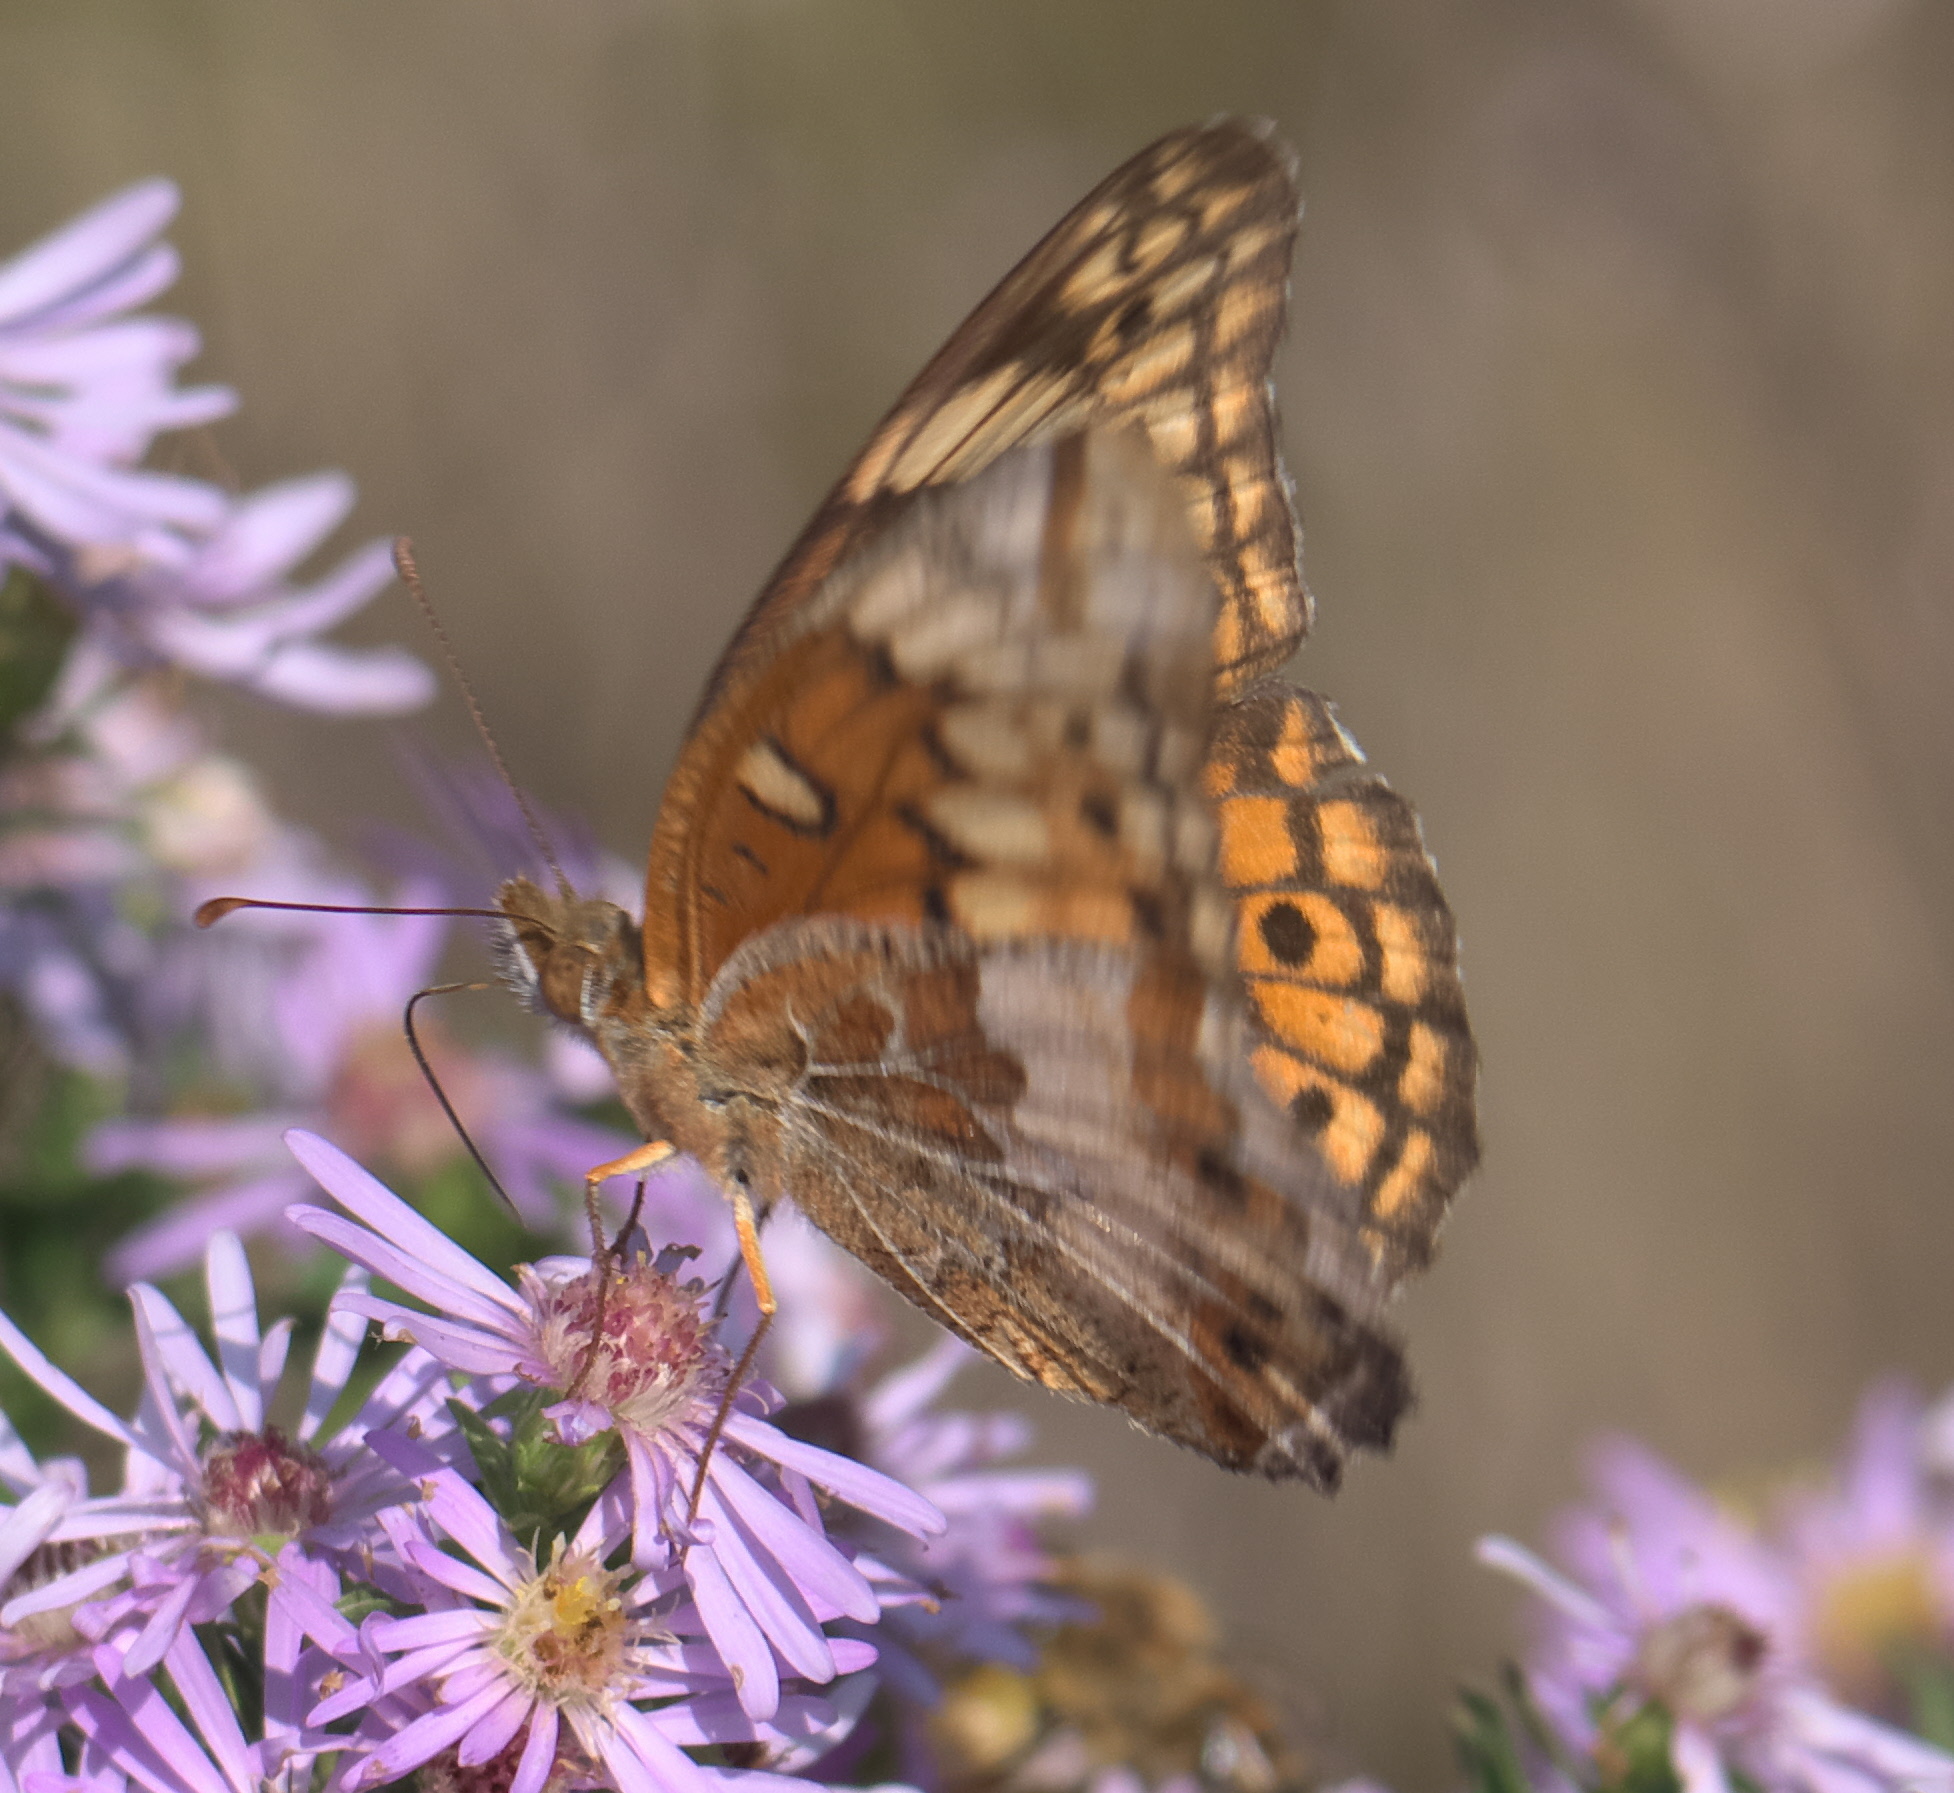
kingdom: Animalia
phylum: Arthropoda
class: Insecta
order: Lepidoptera
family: Nymphalidae
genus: Euptoieta
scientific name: Euptoieta claudia
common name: Variegated fritillary
